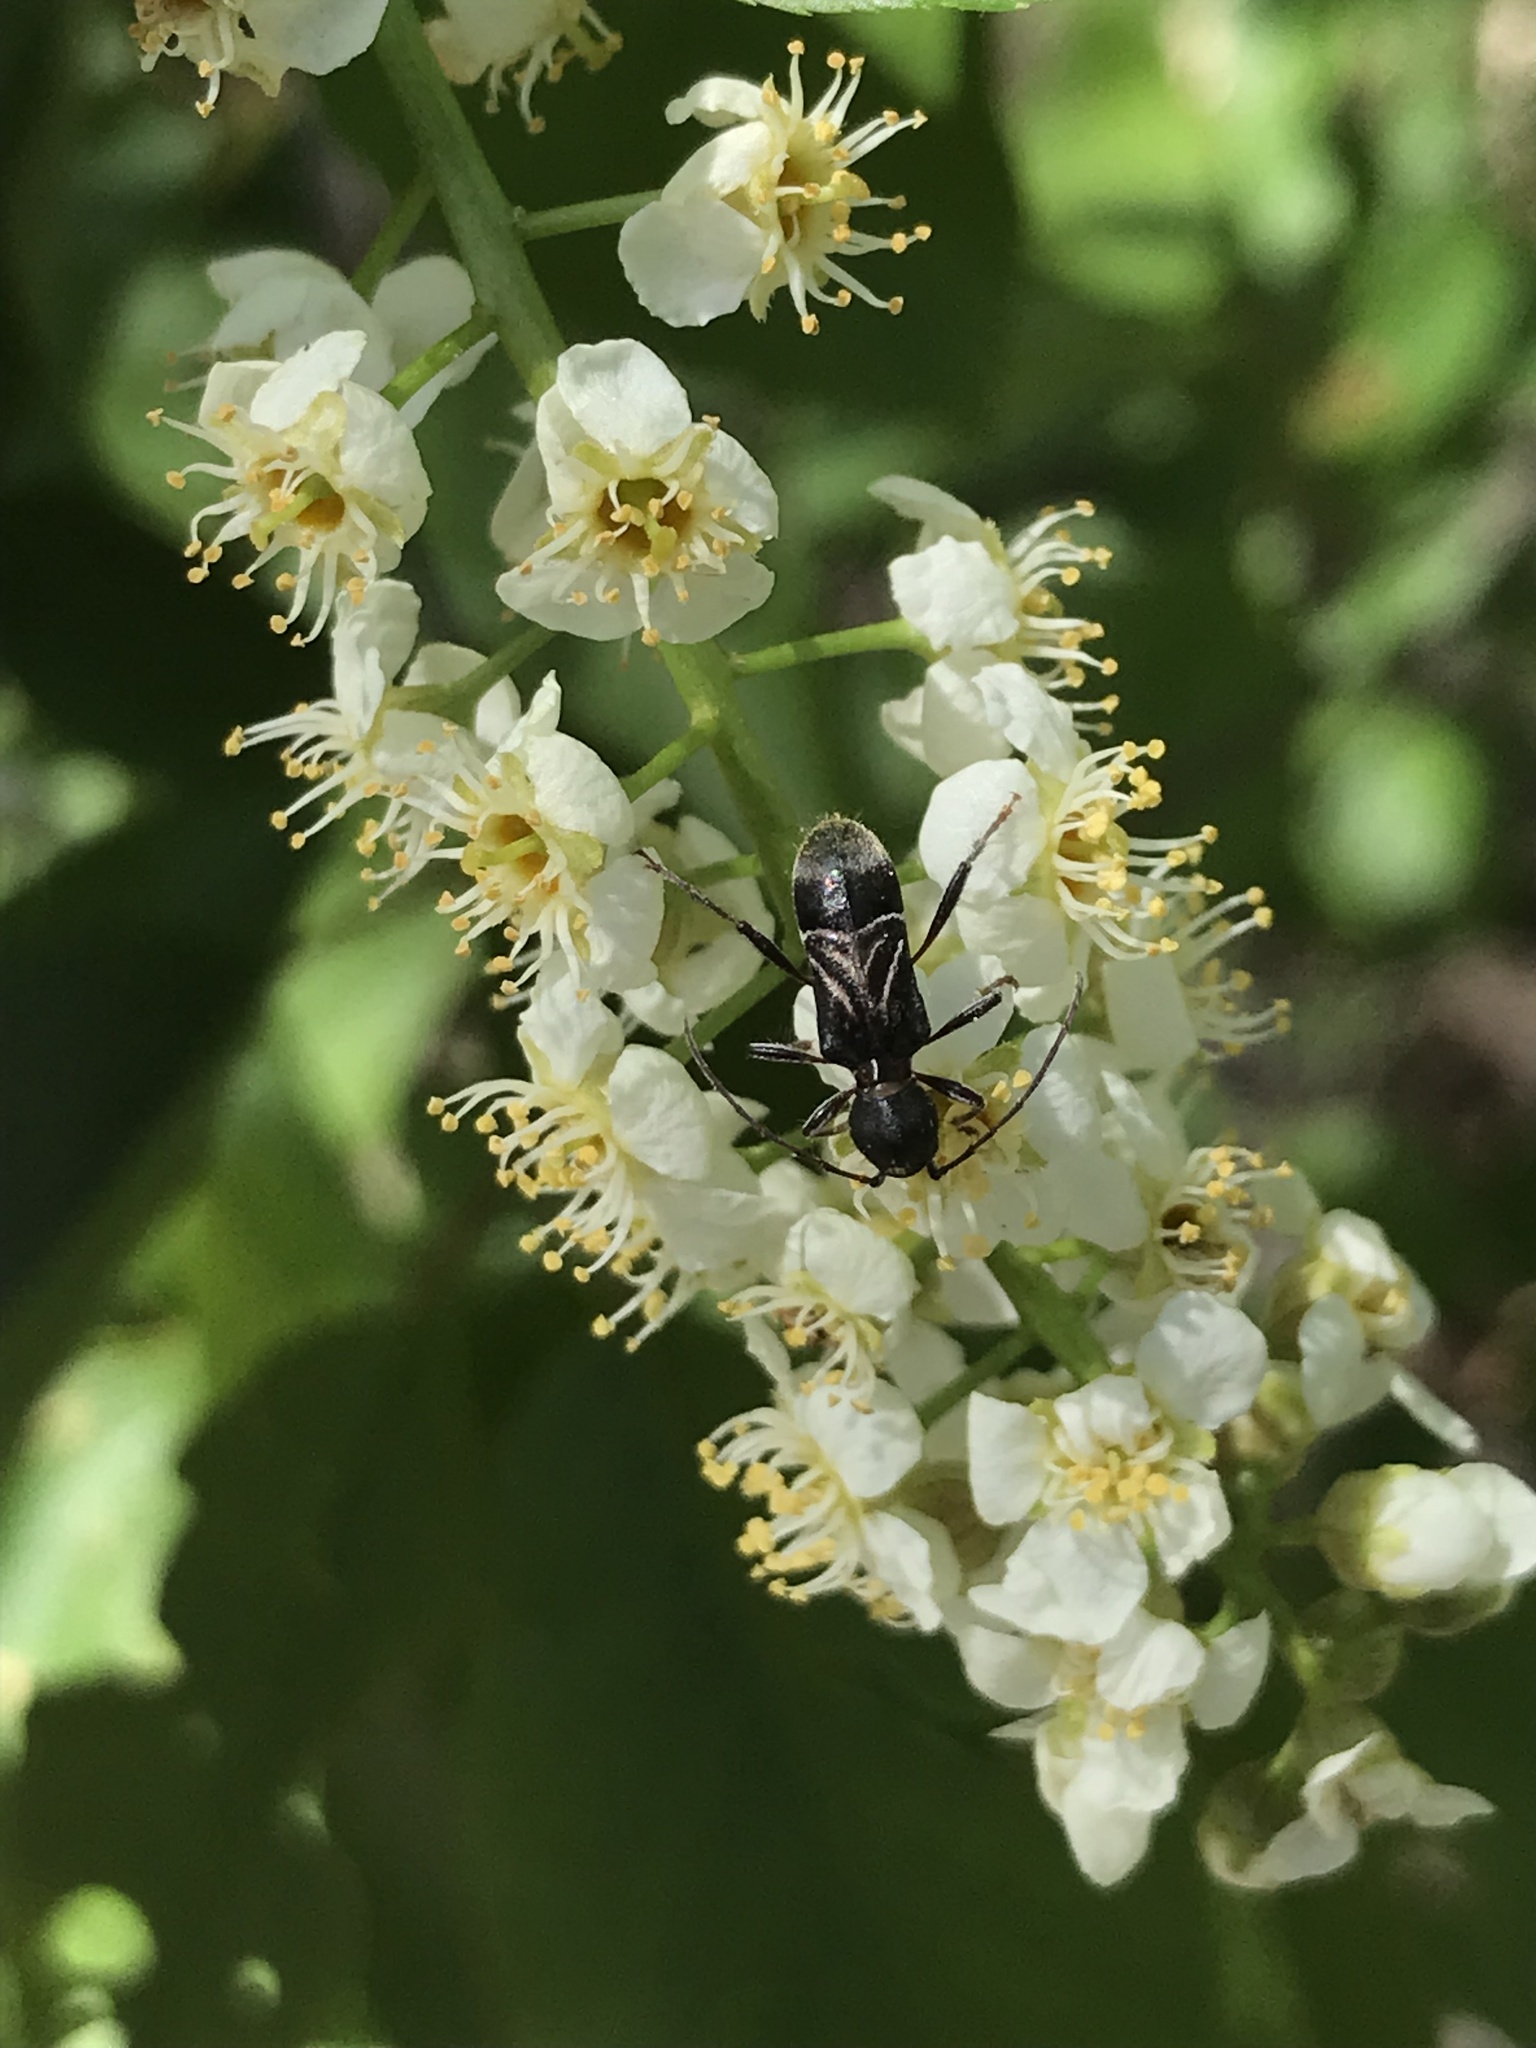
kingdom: Animalia
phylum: Arthropoda
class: Insecta
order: Coleoptera
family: Cerambycidae
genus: Cyrtophorus
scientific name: Cyrtophorus verrucosus
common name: Ant-like longhorn beetle
